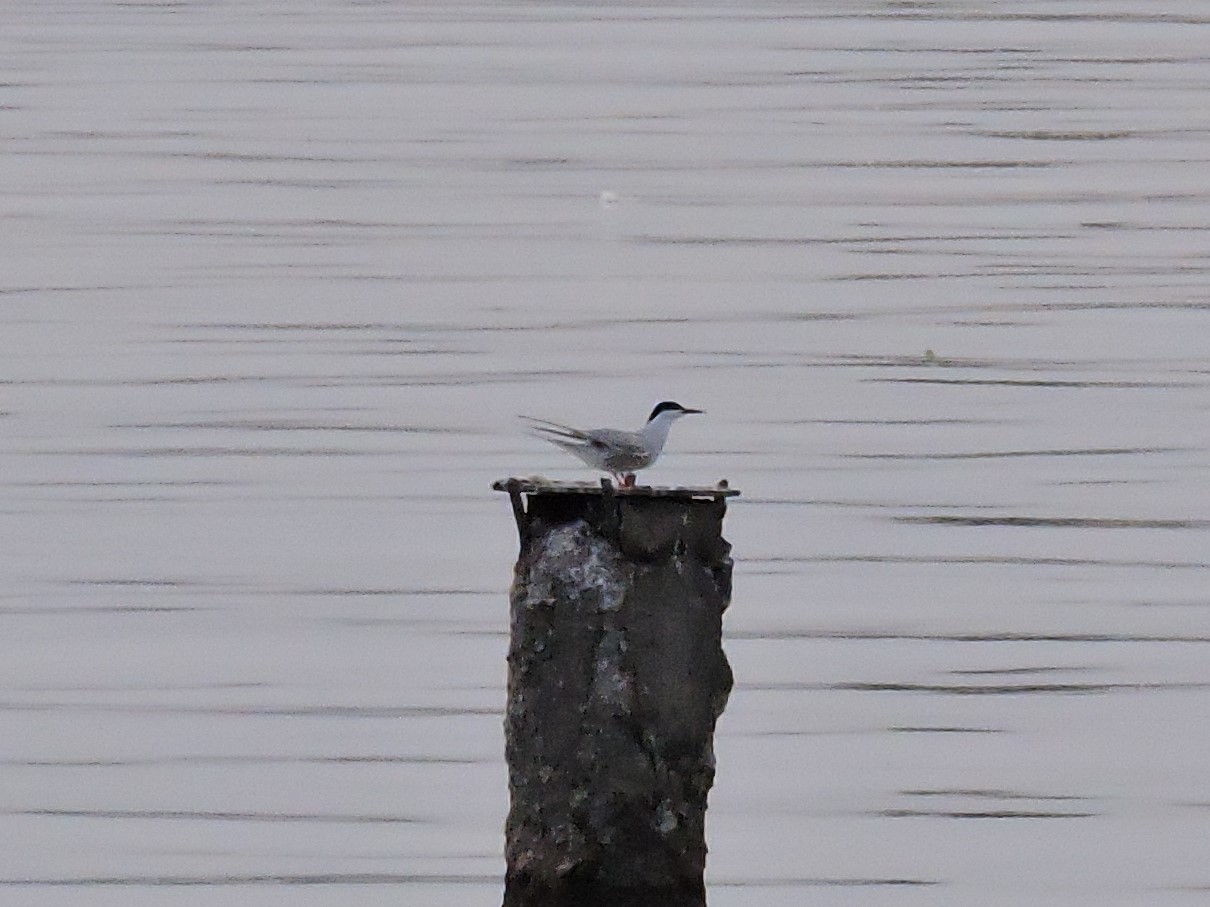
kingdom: Animalia
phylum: Chordata
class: Aves
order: Charadriiformes
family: Laridae
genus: Sterna
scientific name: Sterna hirundo
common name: Common tern
